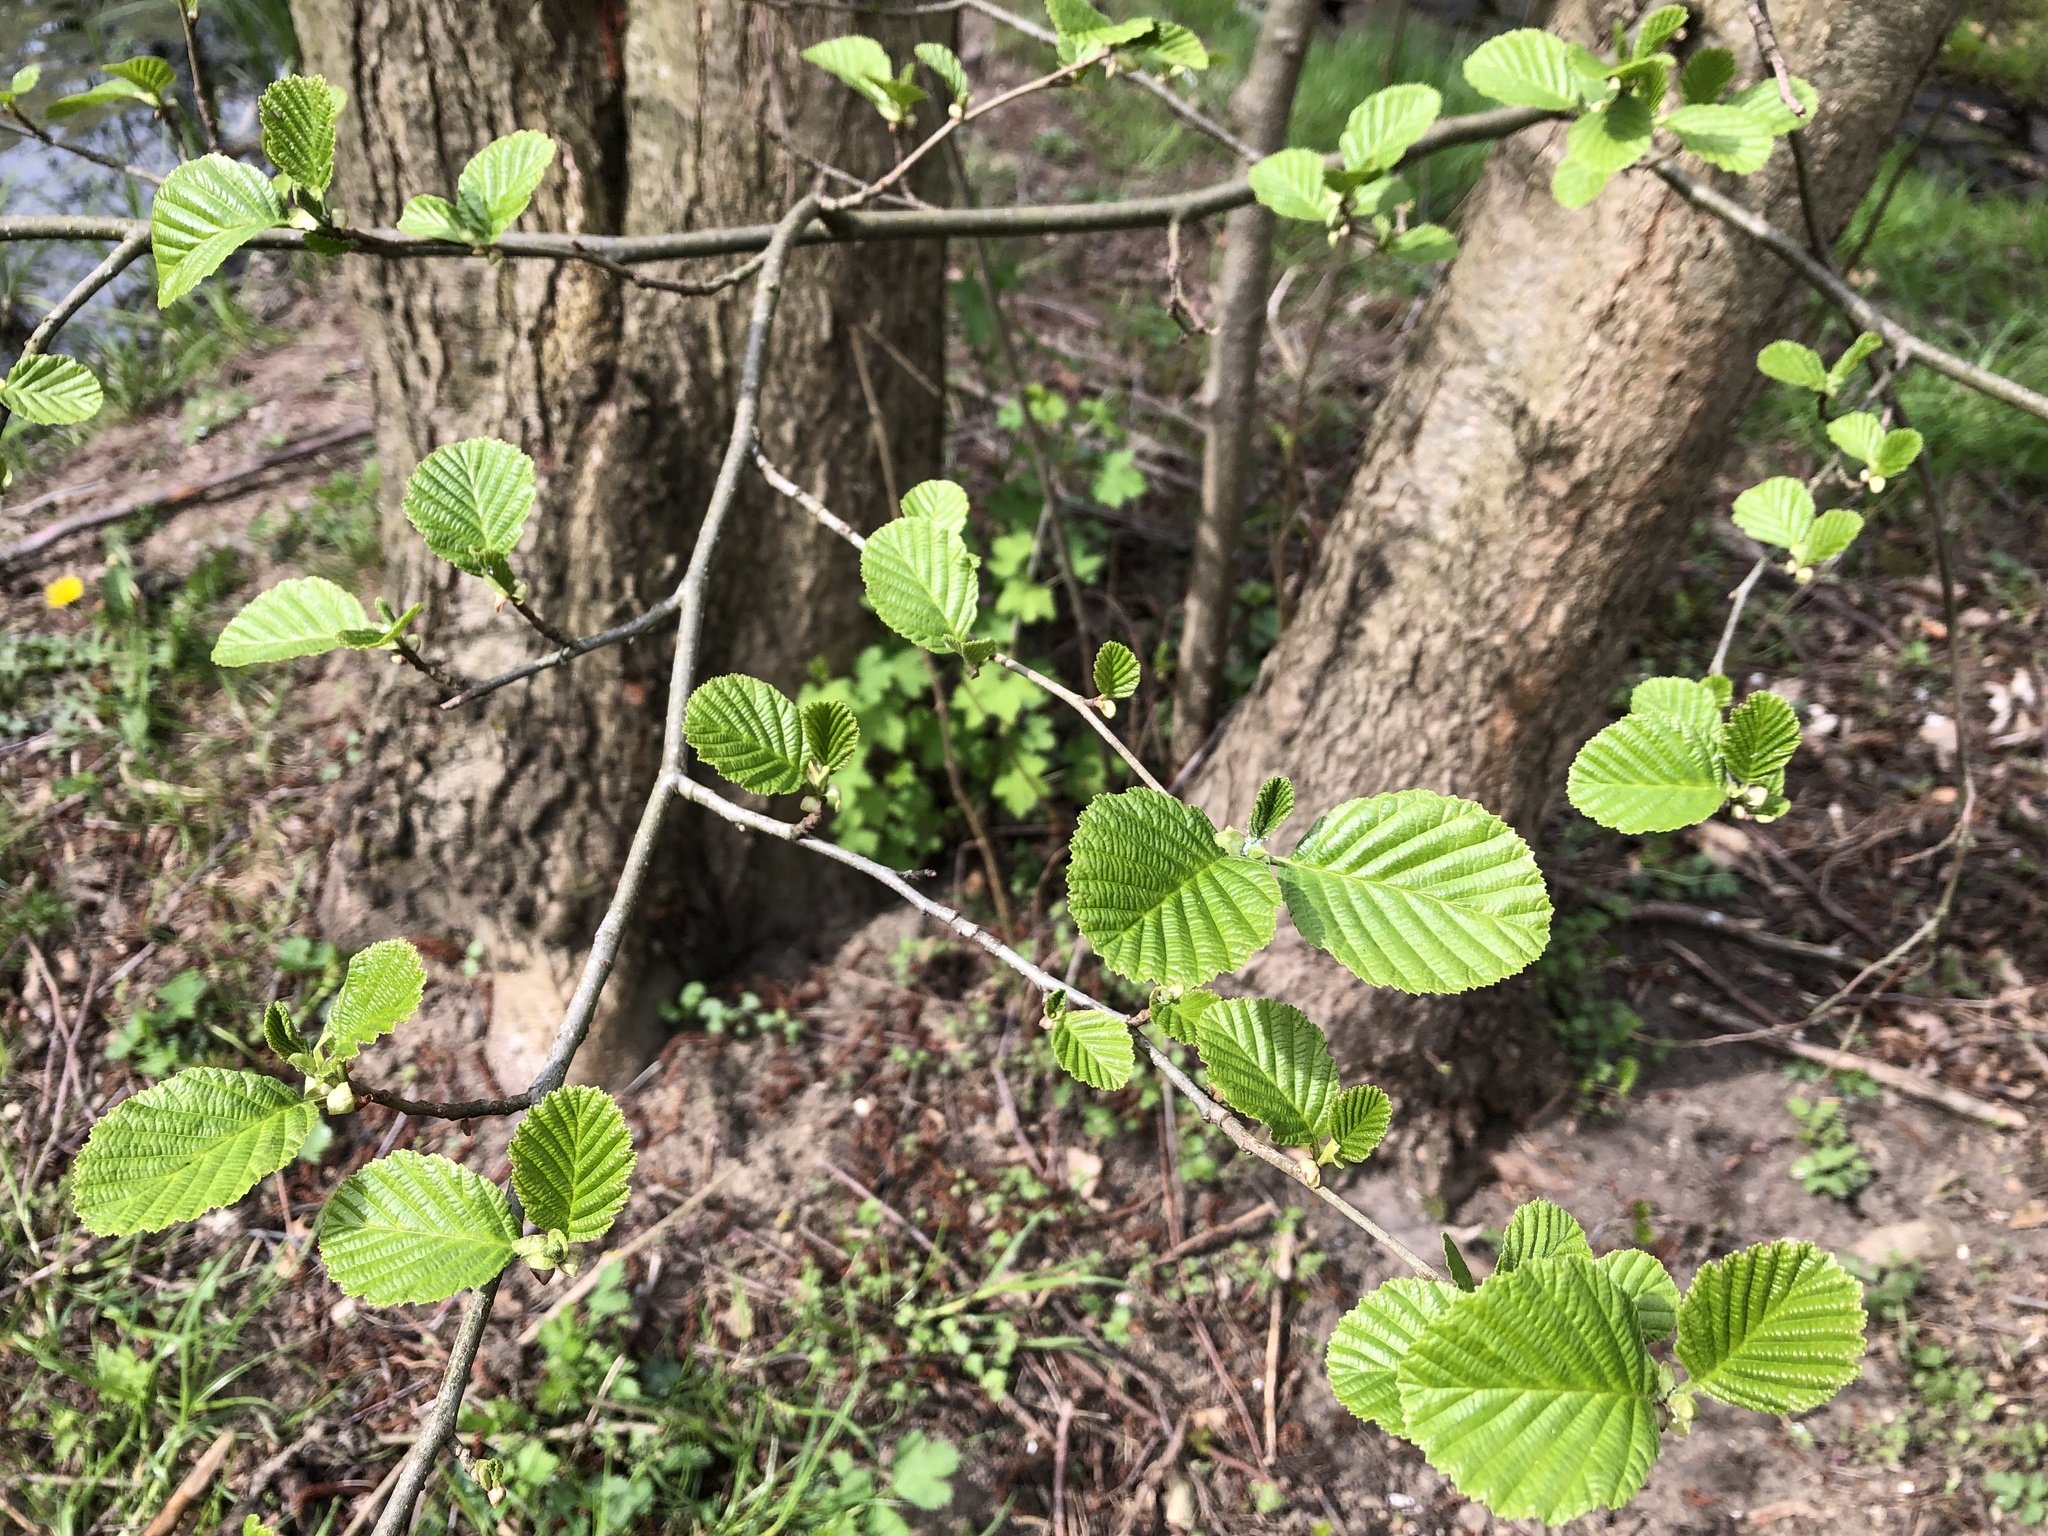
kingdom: Plantae
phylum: Tracheophyta
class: Magnoliopsida
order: Fagales
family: Betulaceae
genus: Alnus
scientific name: Alnus glutinosa
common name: Black alder
